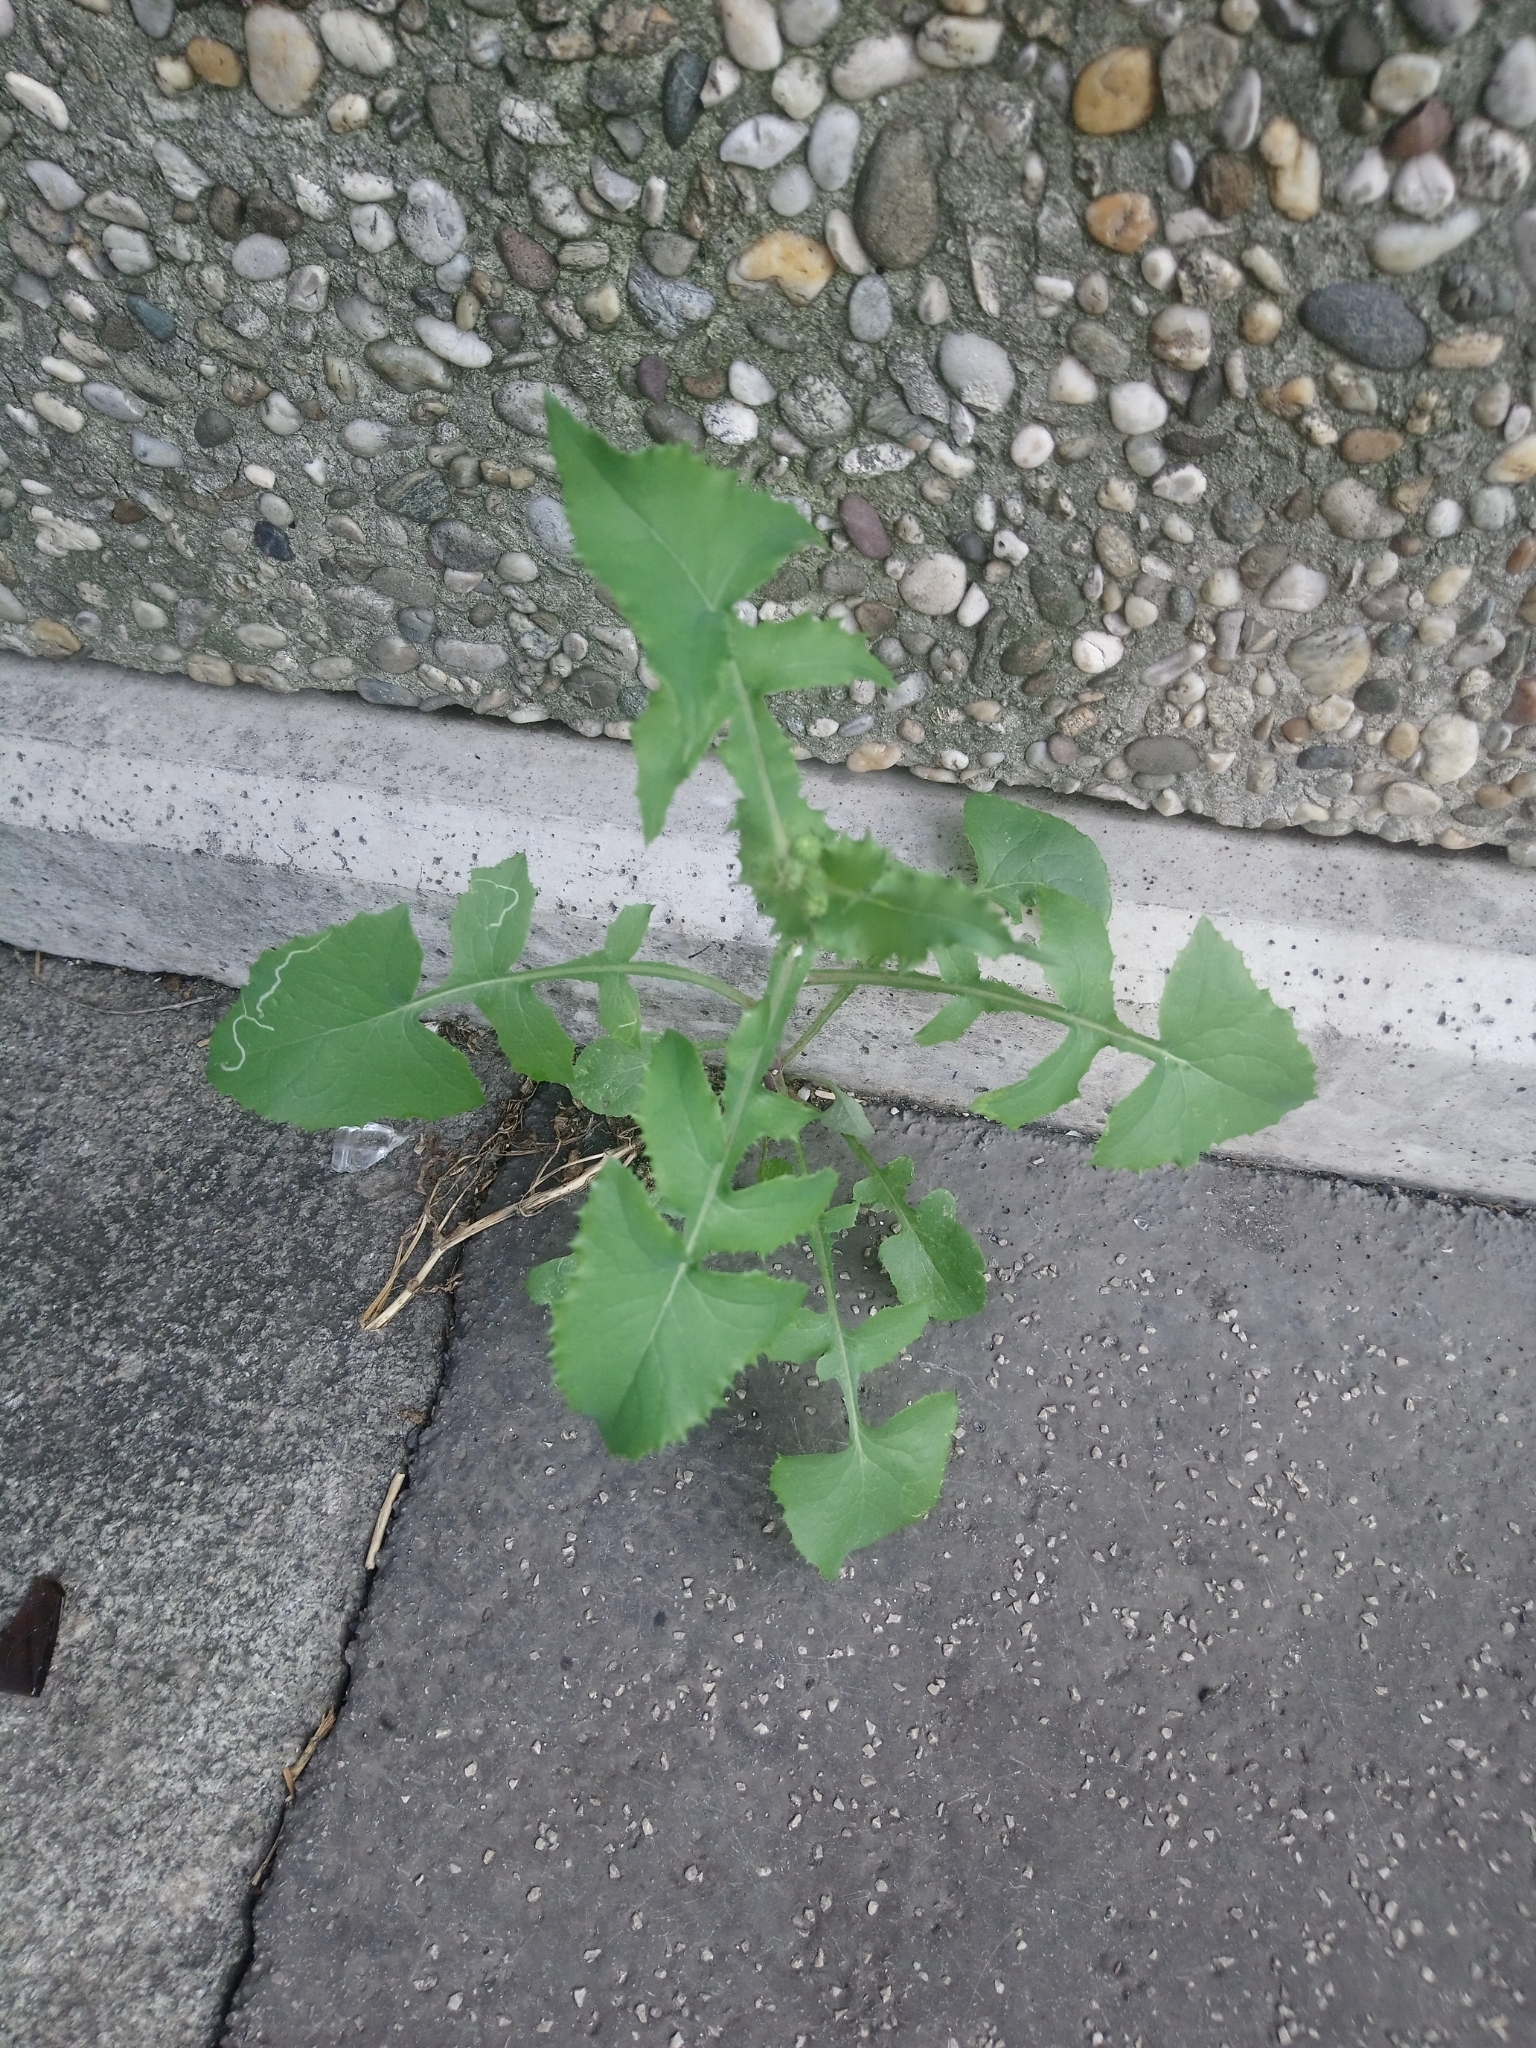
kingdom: Plantae
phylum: Tracheophyta
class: Magnoliopsida
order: Asterales
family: Asteraceae
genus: Sonchus
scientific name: Sonchus oleraceus
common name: Common sowthistle
